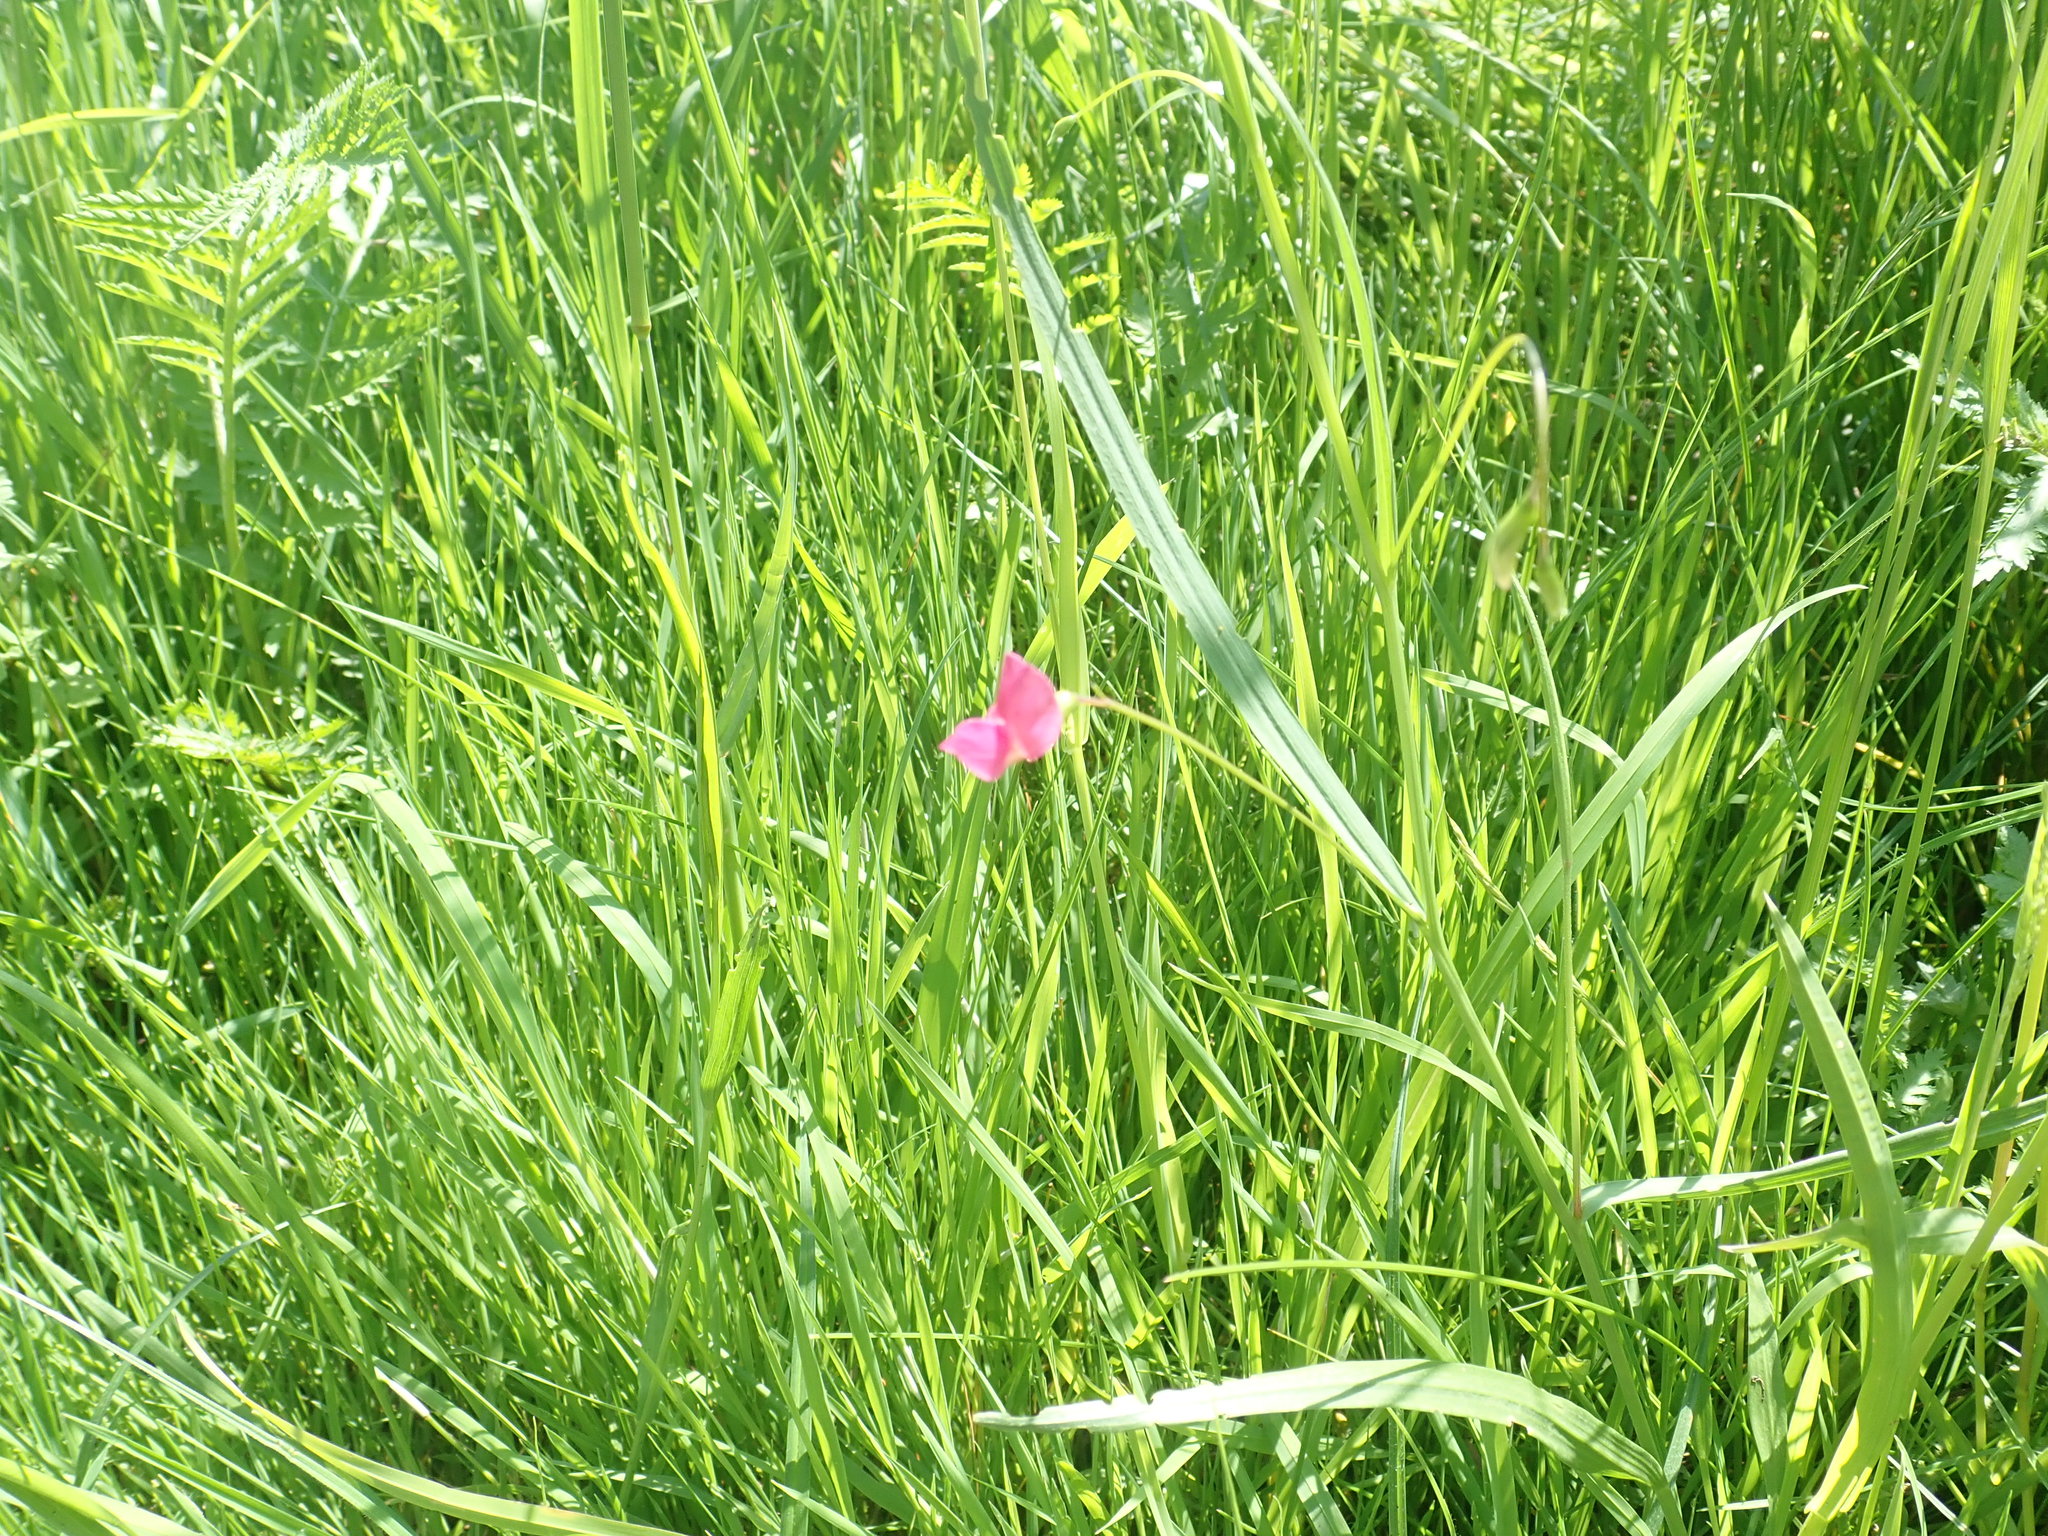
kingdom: Plantae
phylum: Tracheophyta
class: Magnoliopsida
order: Fabales
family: Fabaceae
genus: Lathyrus
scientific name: Lathyrus nissolia
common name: Grass vetchling
